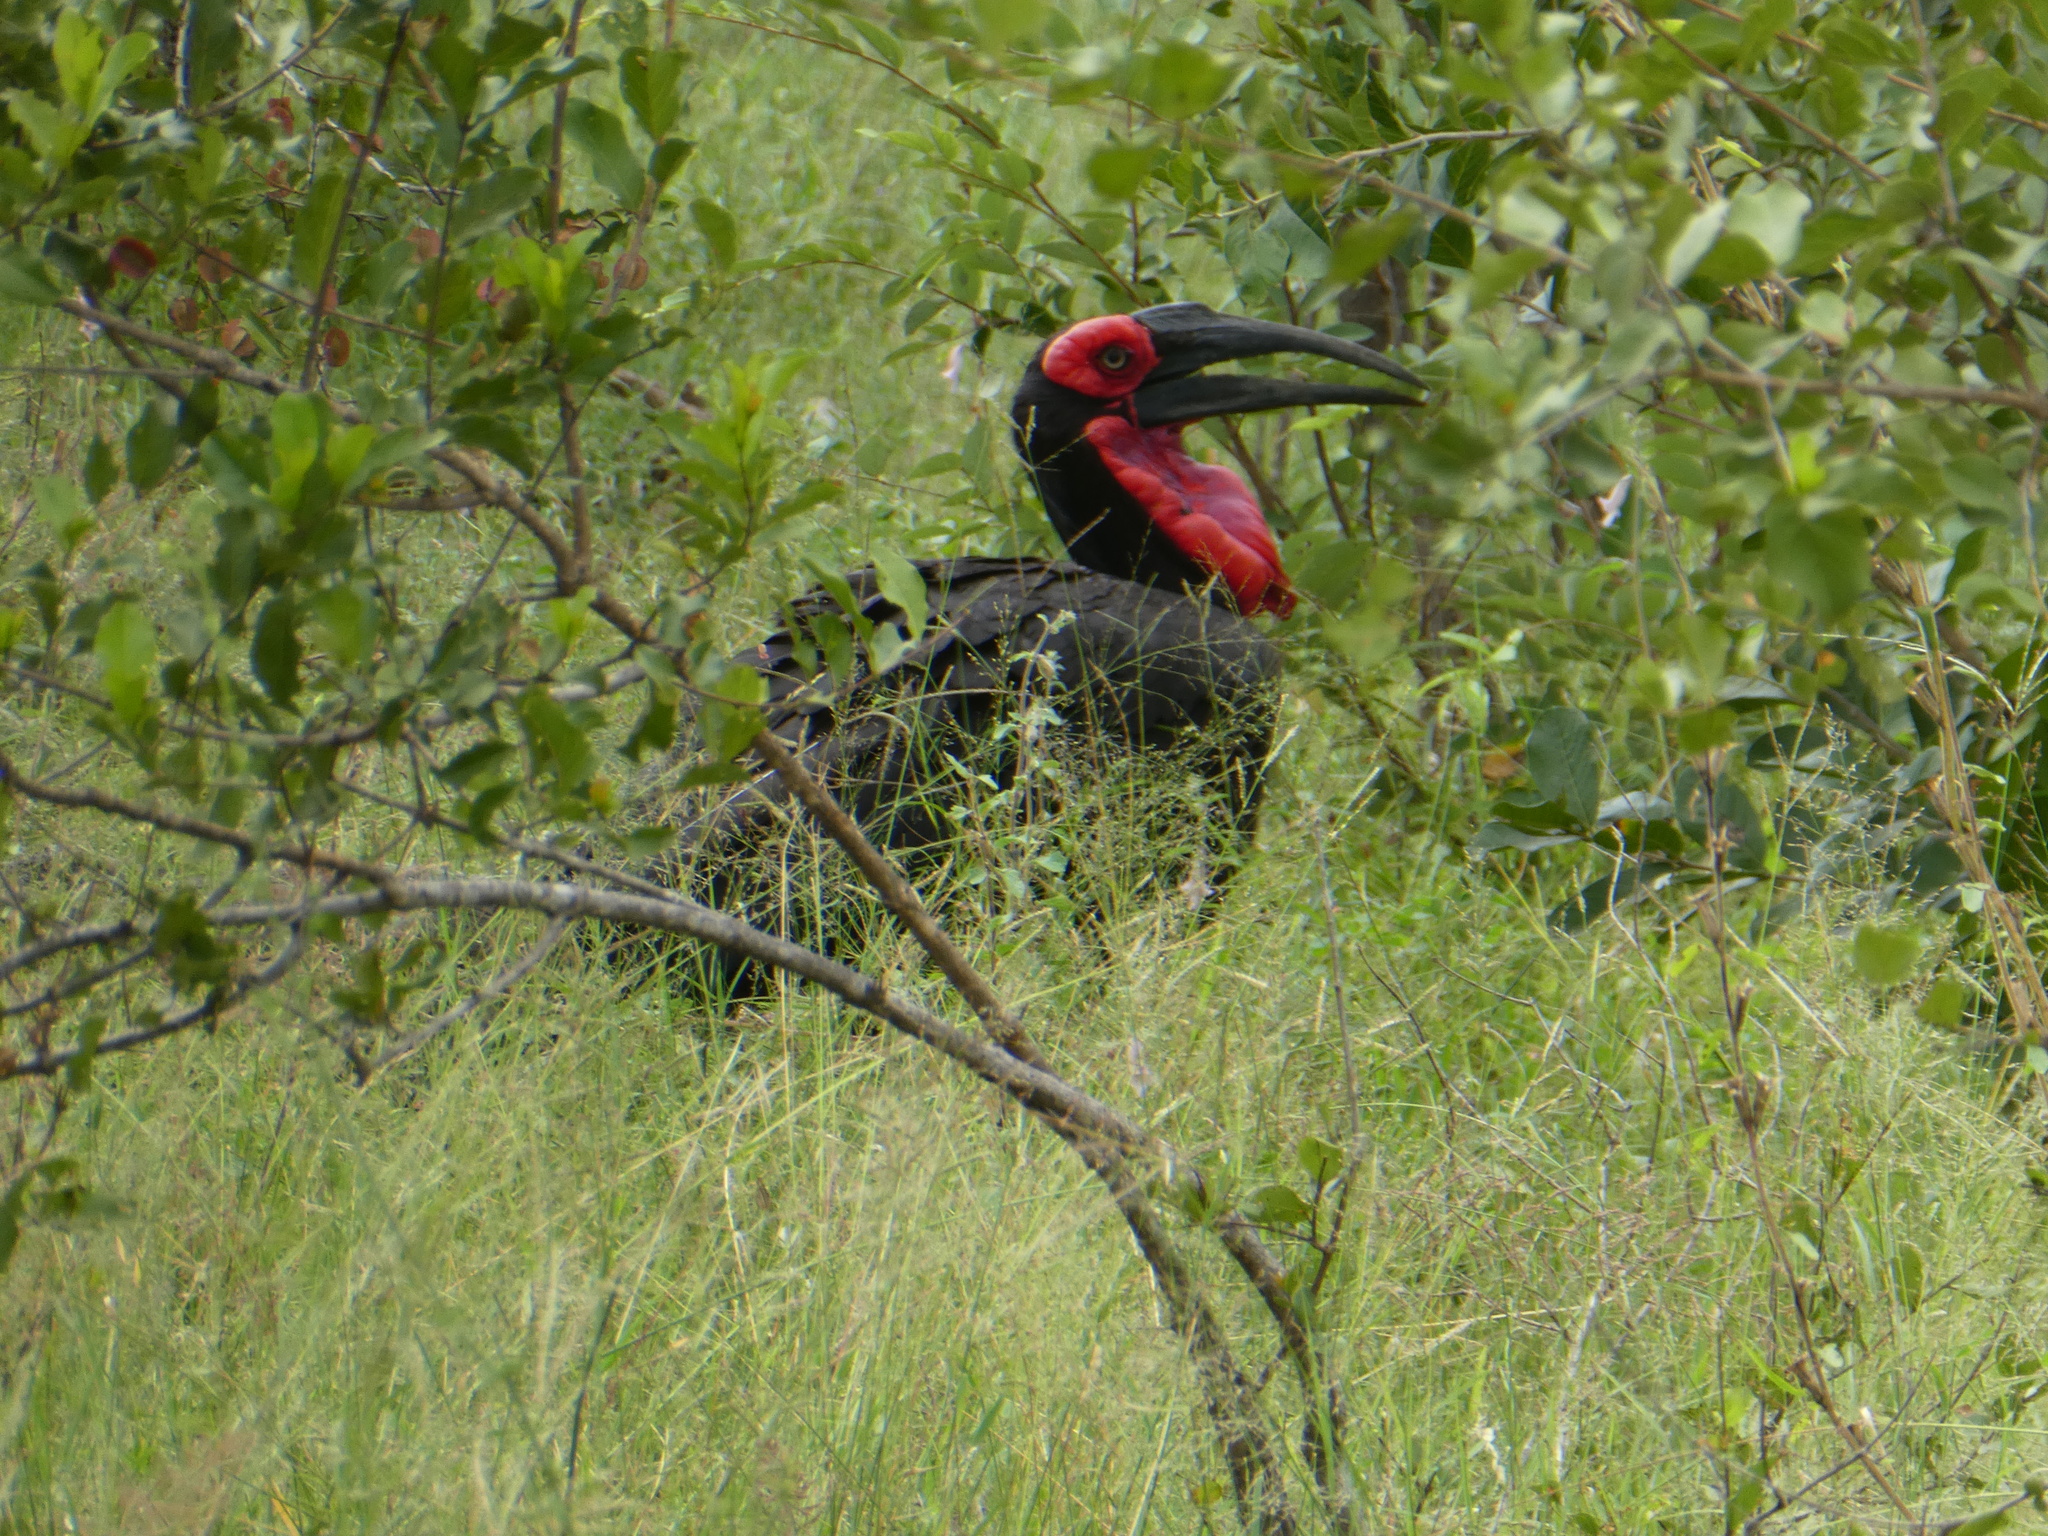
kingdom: Animalia
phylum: Chordata
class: Aves
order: Bucerotiformes
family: Bucorvidae
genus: Bucorvus
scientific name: Bucorvus leadbeateri
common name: Southern ground-hornbill
